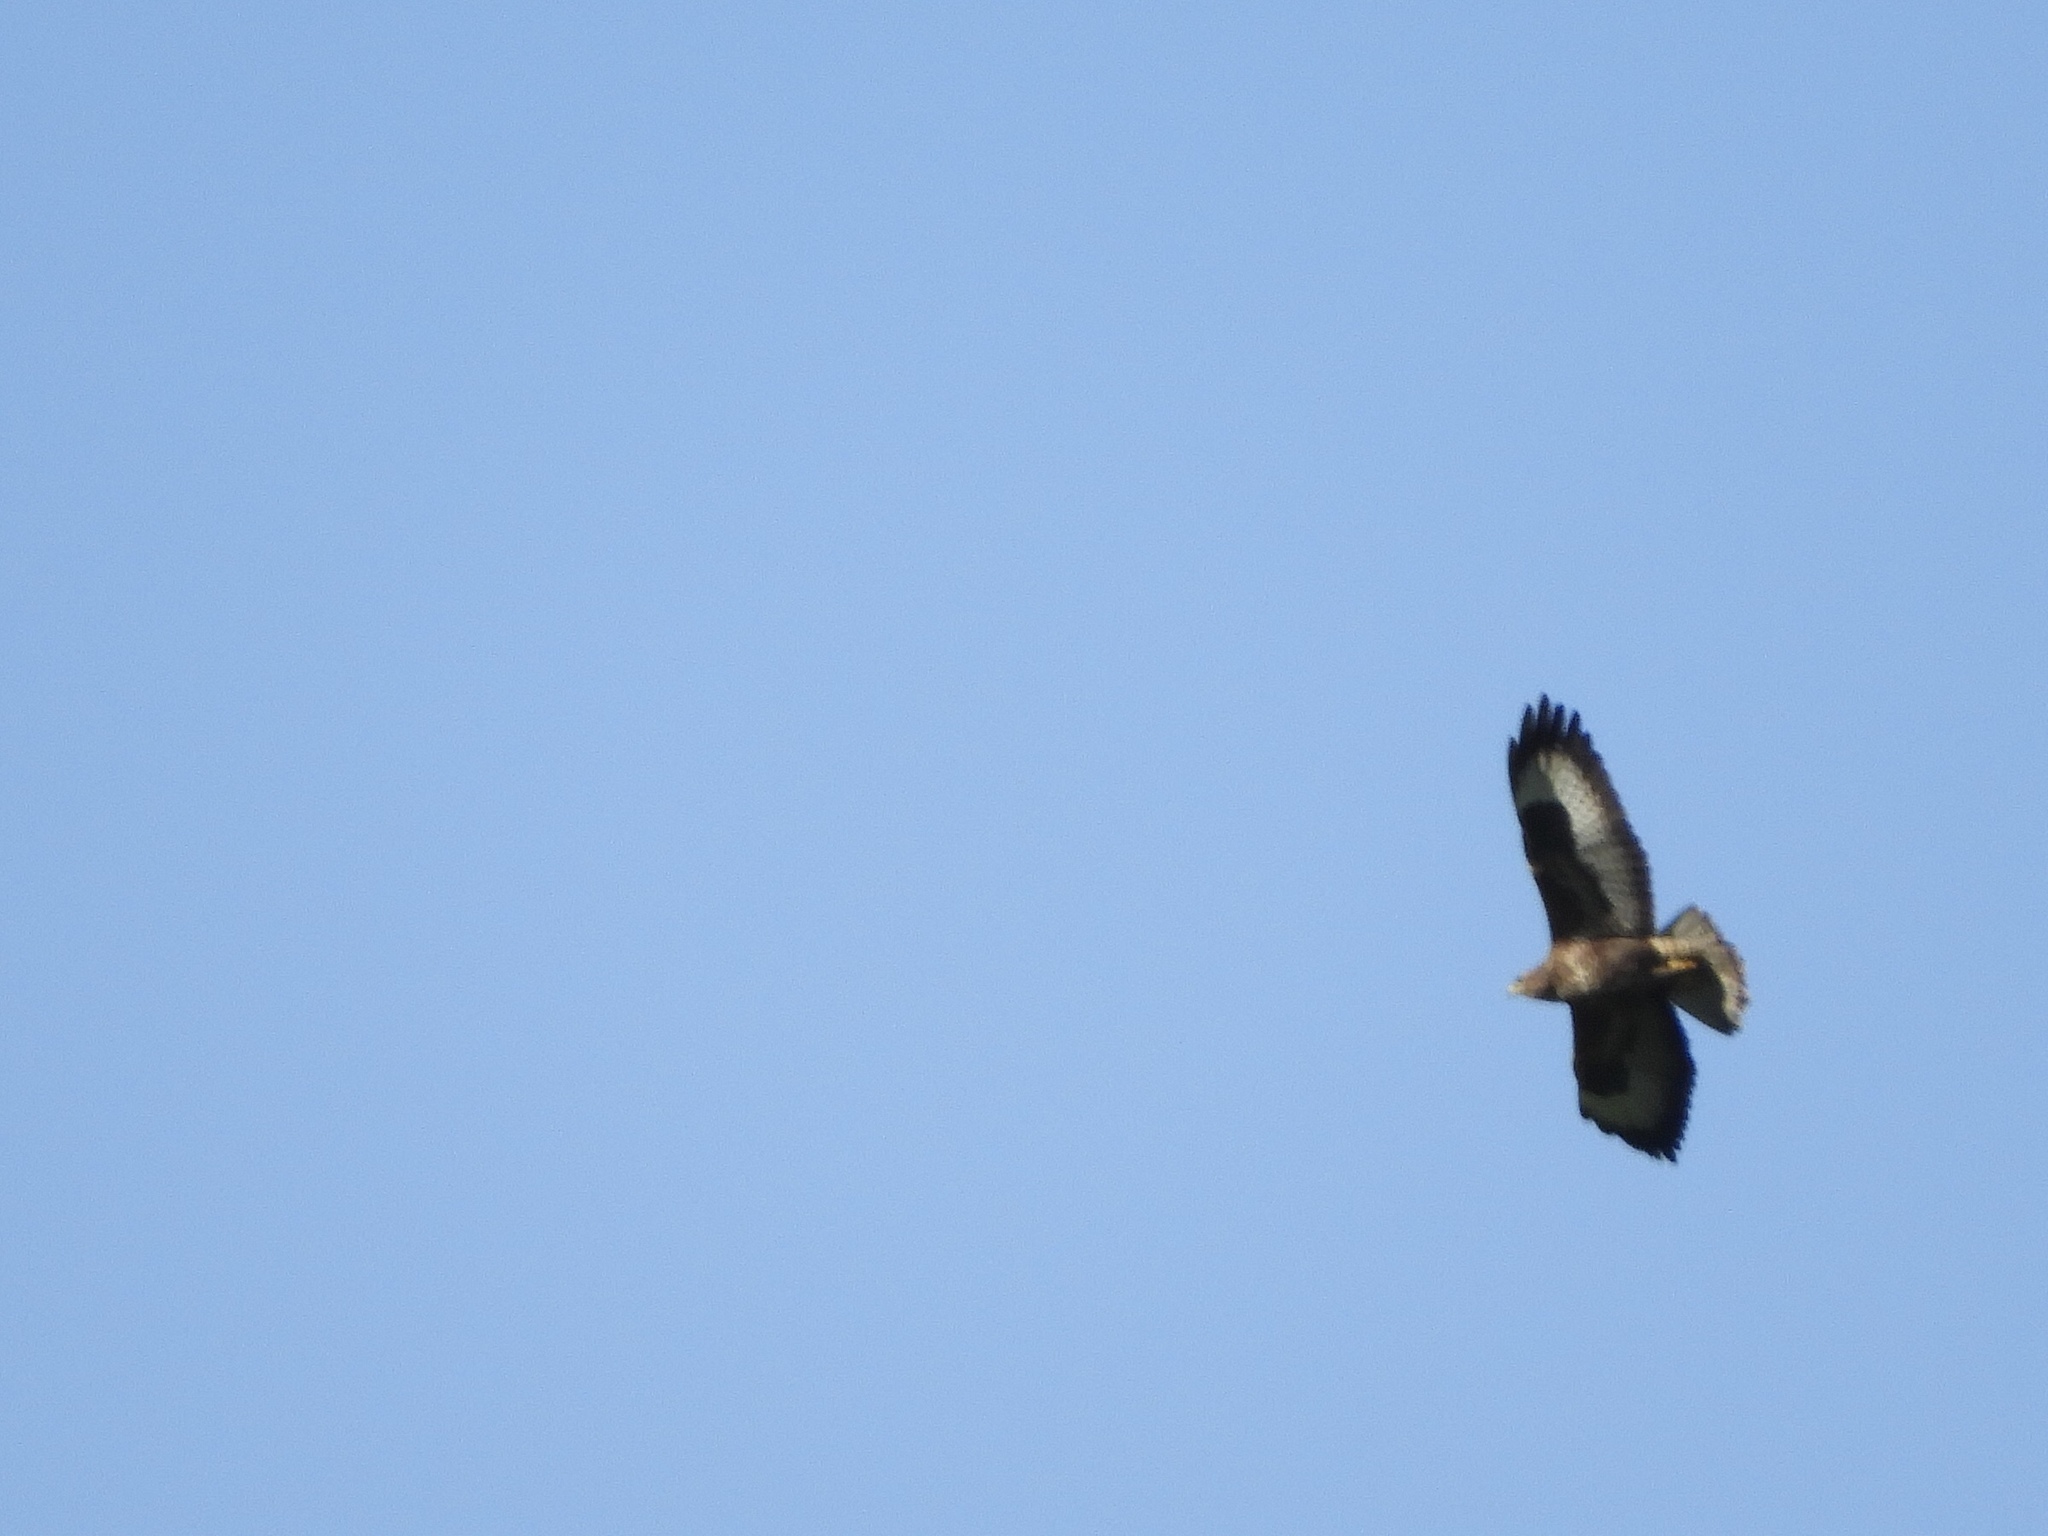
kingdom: Animalia
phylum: Chordata
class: Aves
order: Accipitriformes
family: Accipitridae
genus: Buteo
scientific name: Buteo buteo
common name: Common buzzard
